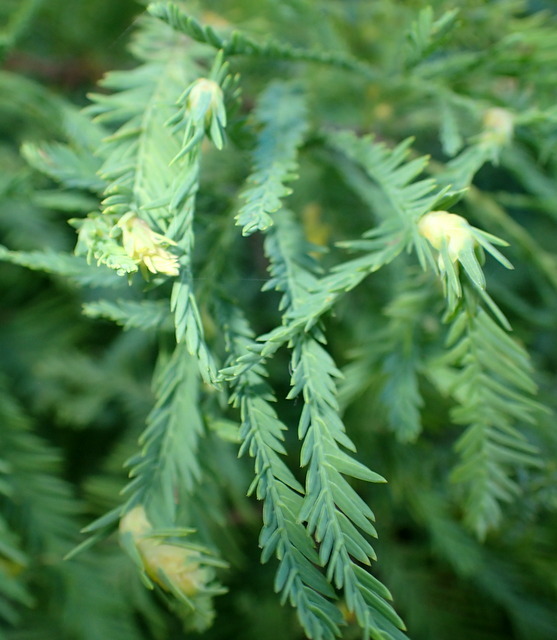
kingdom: Animalia
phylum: Arthropoda
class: Insecta
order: Diptera
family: Cecidomyiidae
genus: Taxodiomyia
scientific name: Taxodiomyia cupressiananassa
